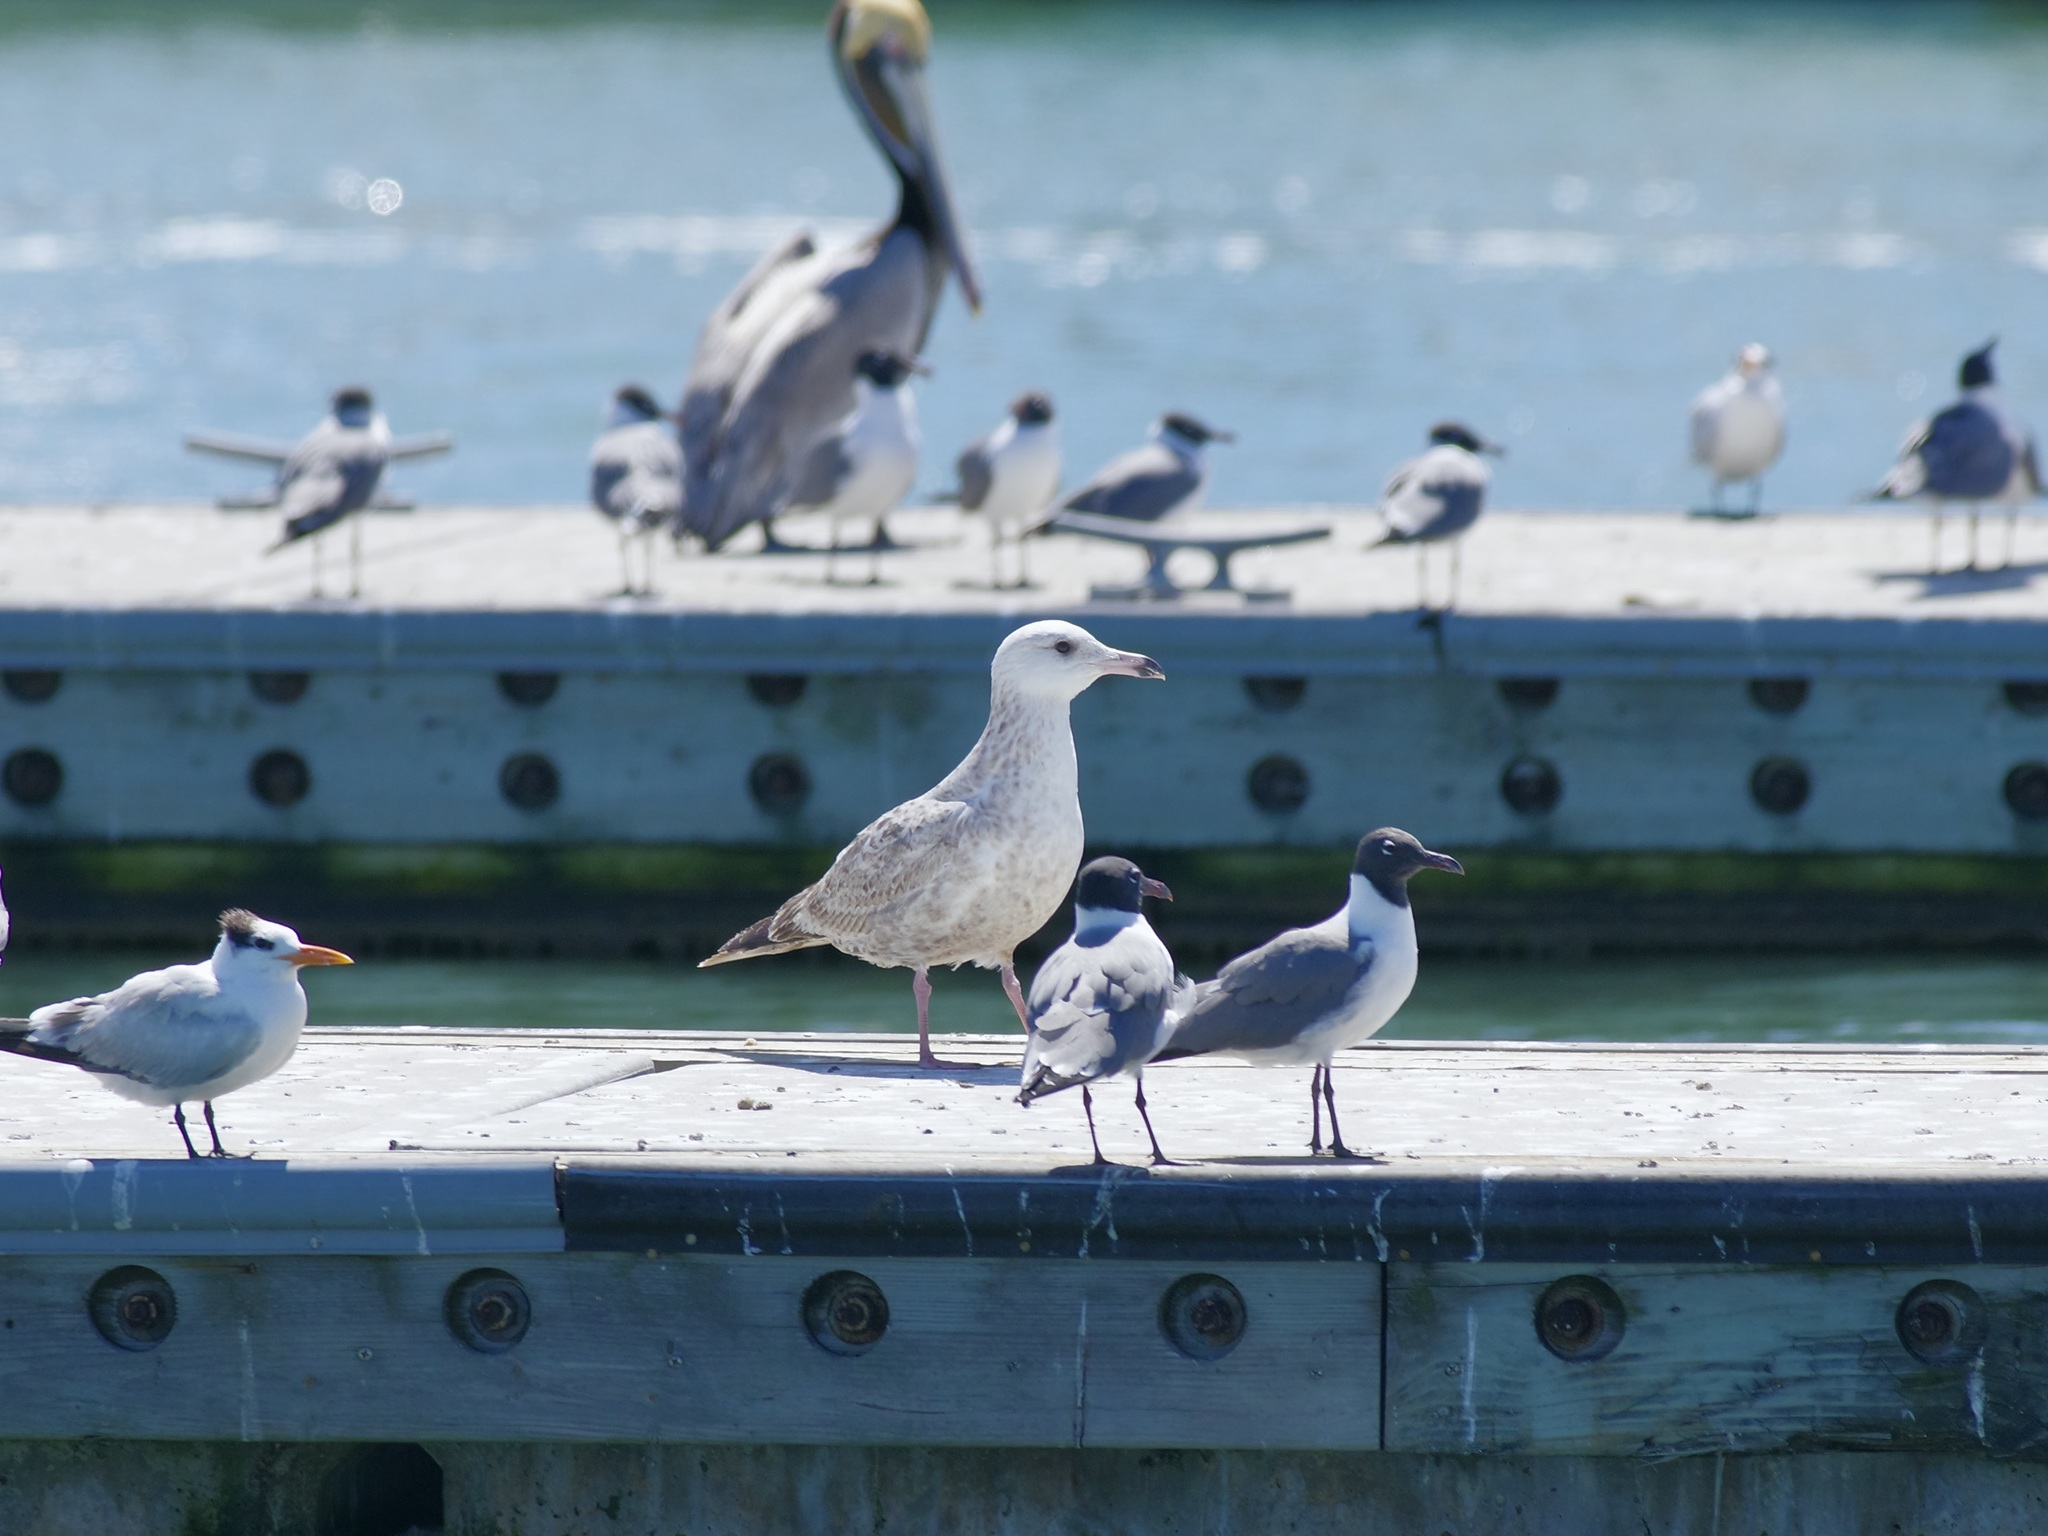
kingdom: Animalia
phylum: Chordata
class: Aves
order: Charadriiformes
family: Laridae
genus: Larus
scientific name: Larus argentatus
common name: Herring gull
